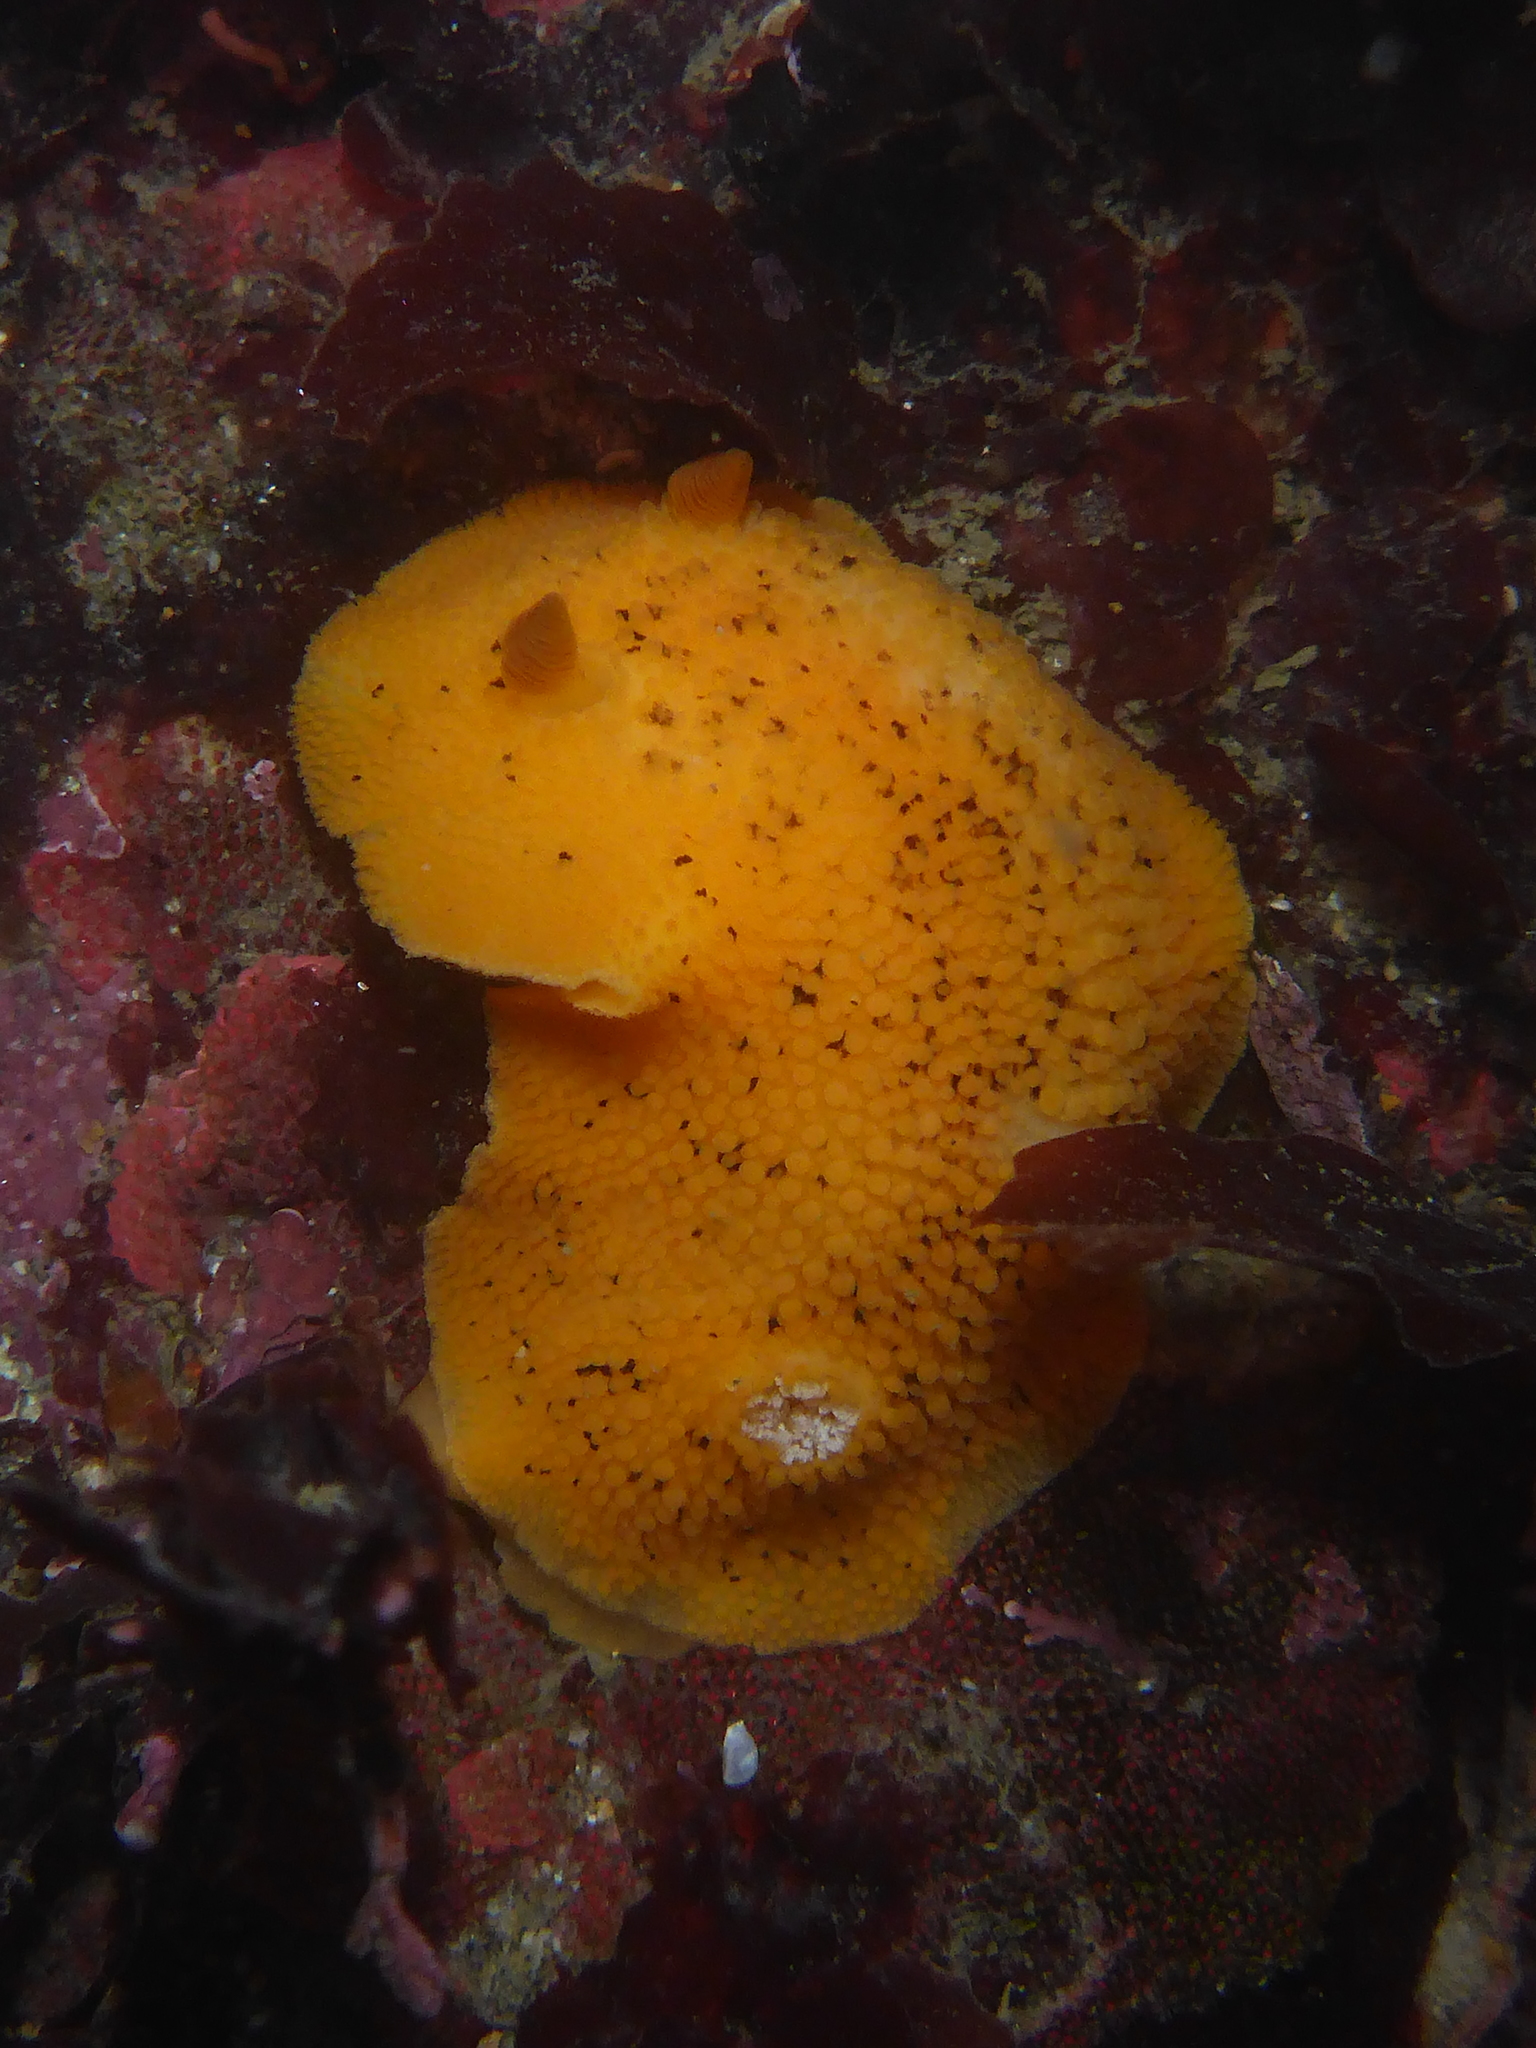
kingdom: Animalia
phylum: Mollusca
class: Gastropoda
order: Nudibranchia
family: Discodorididae
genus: Peltodoris
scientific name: Peltodoris nobilis
